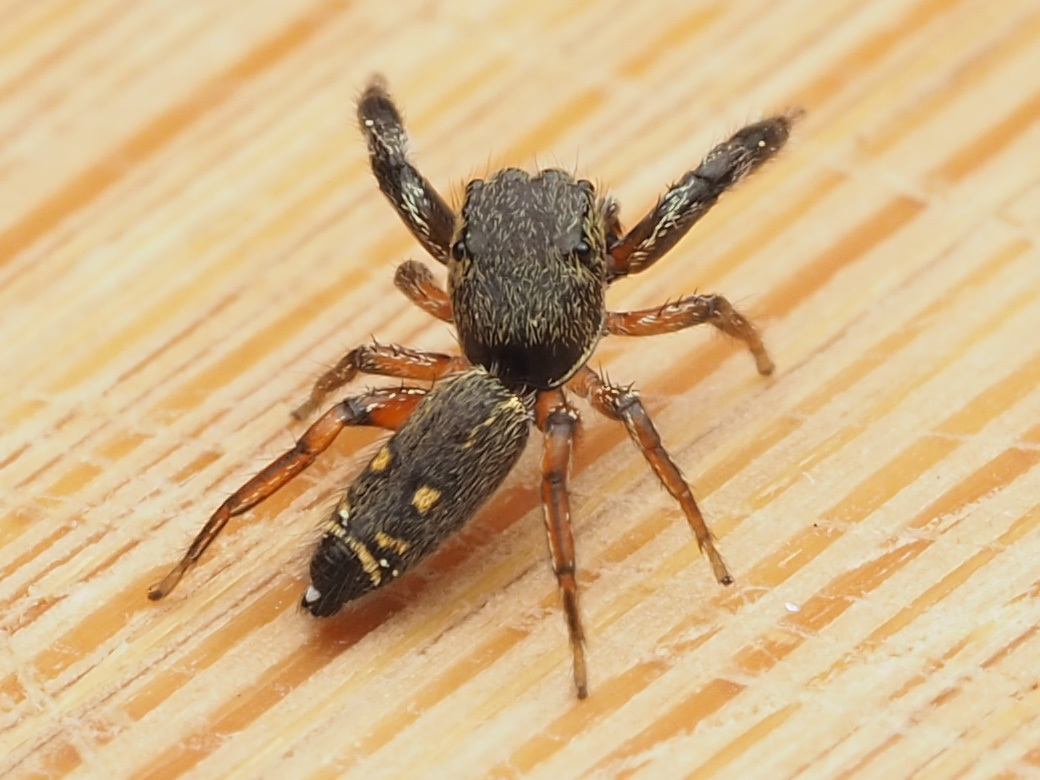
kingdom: Animalia
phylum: Arthropoda
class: Arachnida
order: Araneae
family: Salticidae
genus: Metacyrba
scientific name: Metacyrba punctata
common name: Jumping spiders
